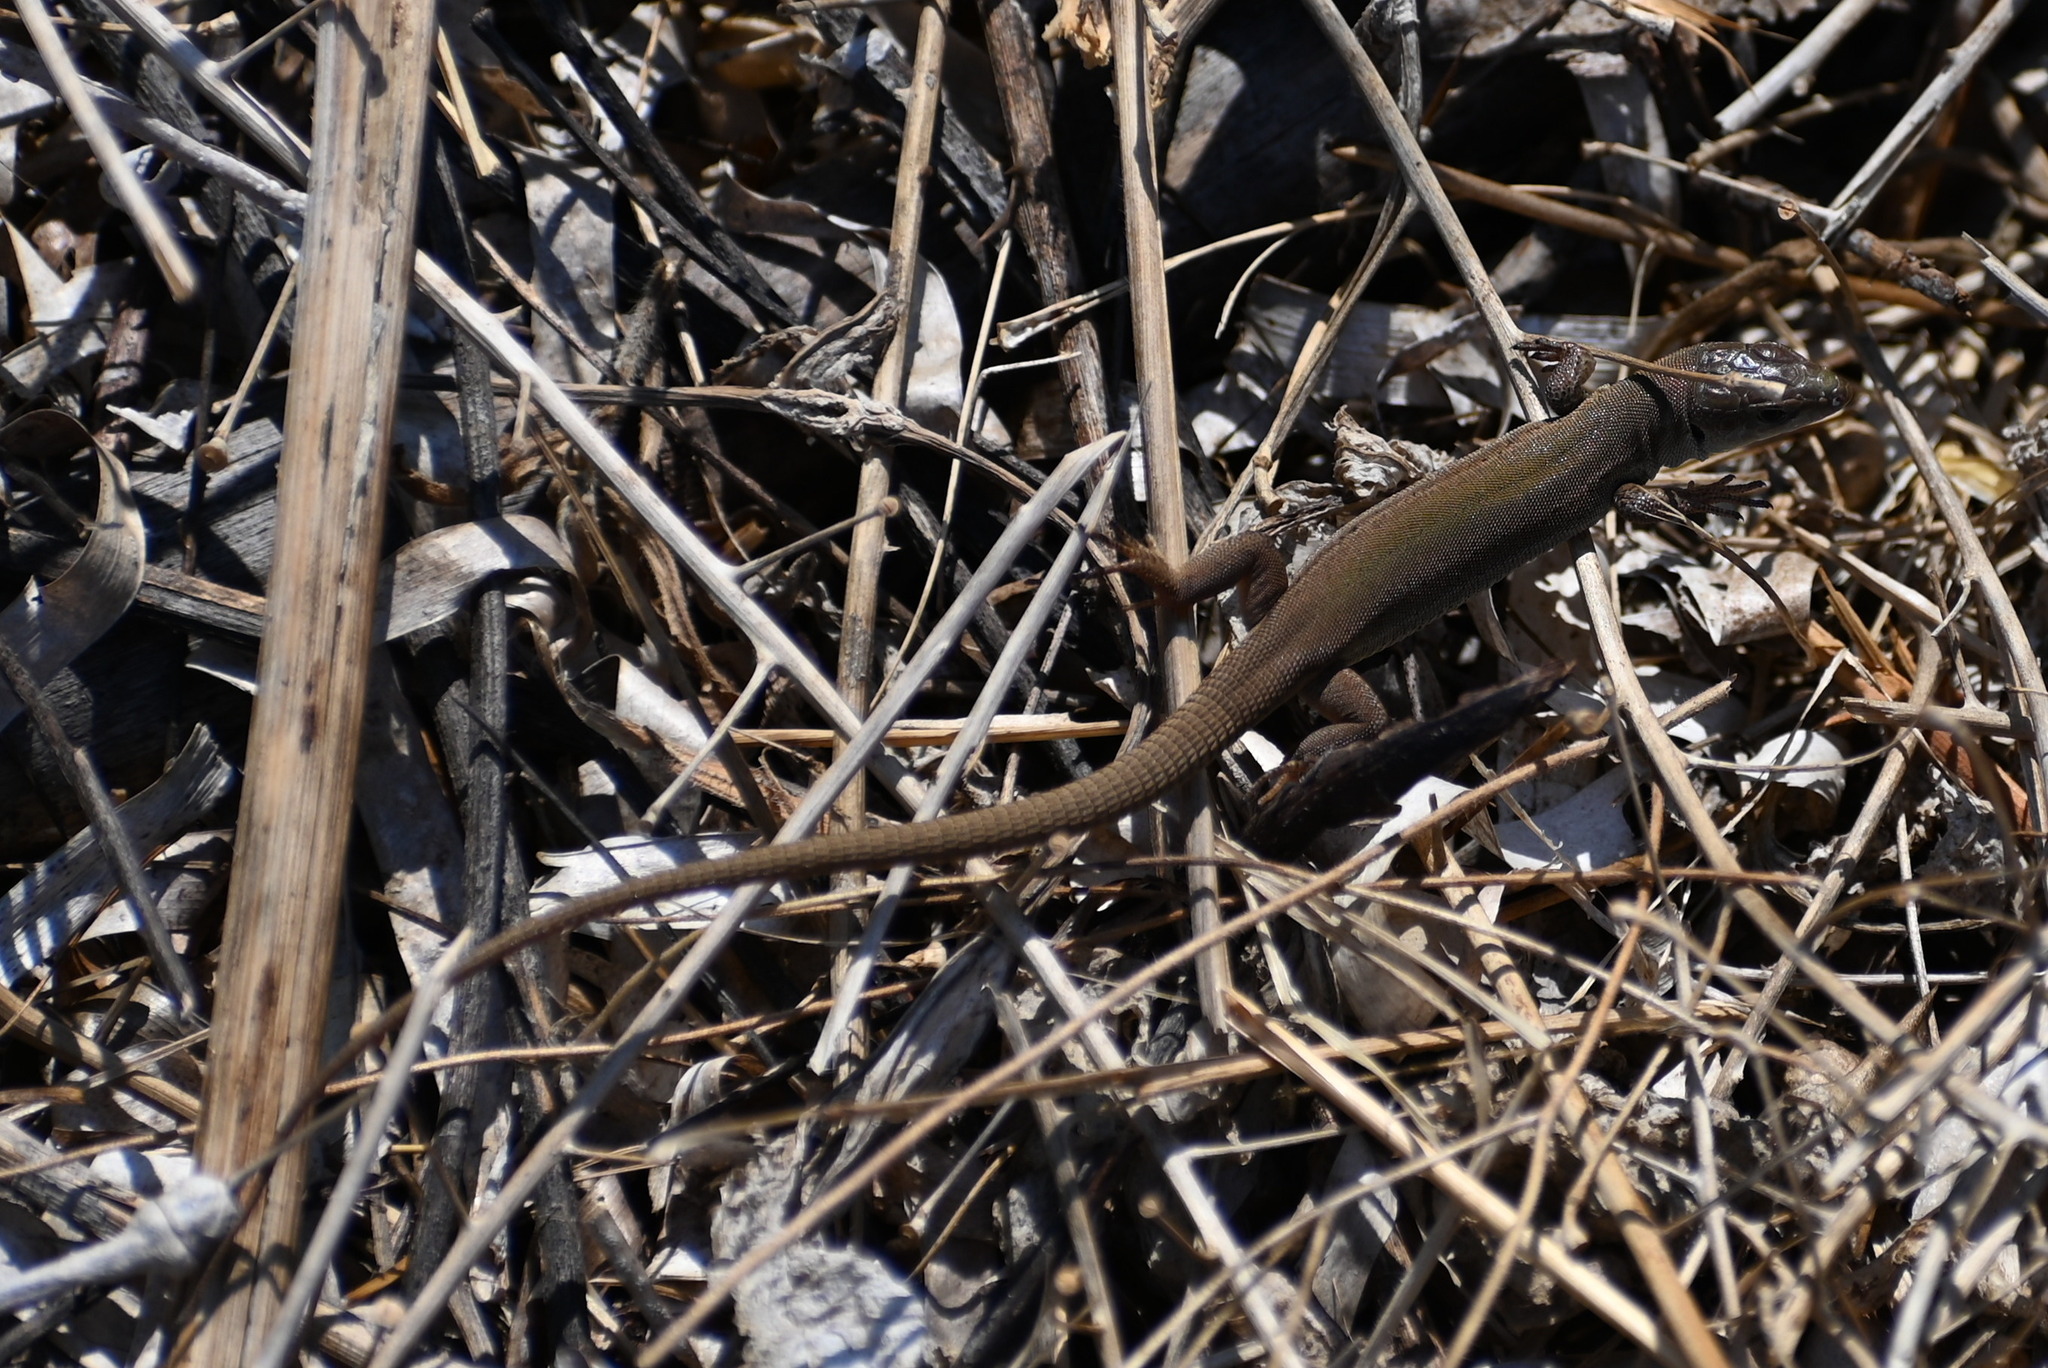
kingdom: Animalia
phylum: Chordata
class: Squamata
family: Lacertidae
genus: Podarcis
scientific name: Podarcis ionicus
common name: Ionian wall lizard
